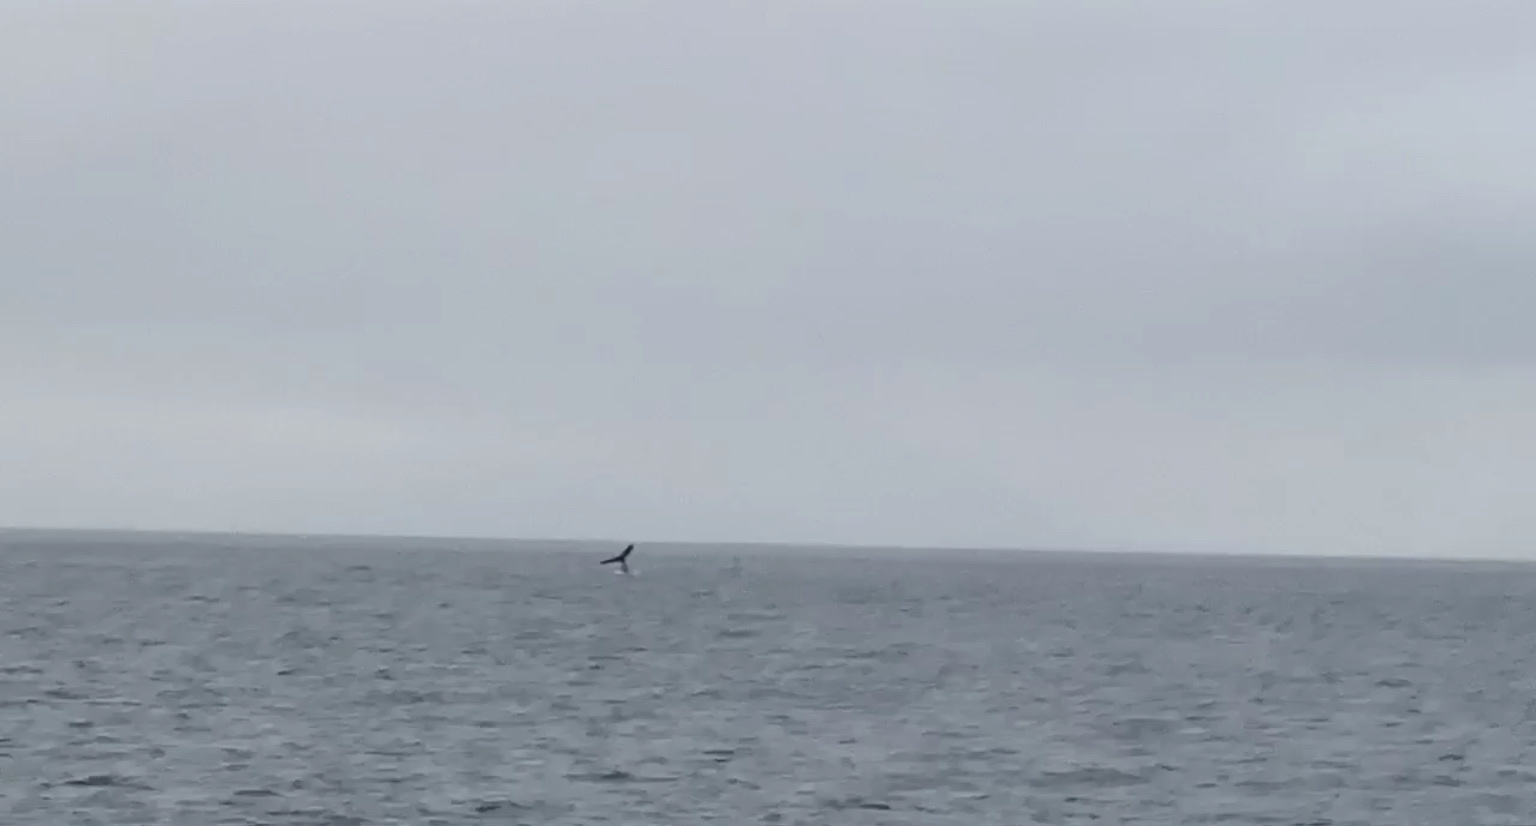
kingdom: Animalia
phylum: Chordata
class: Mammalia
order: Cetacea
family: Balaenopteridae
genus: Megaptera
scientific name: Megaptera novaeangliae
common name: Humpback whale
